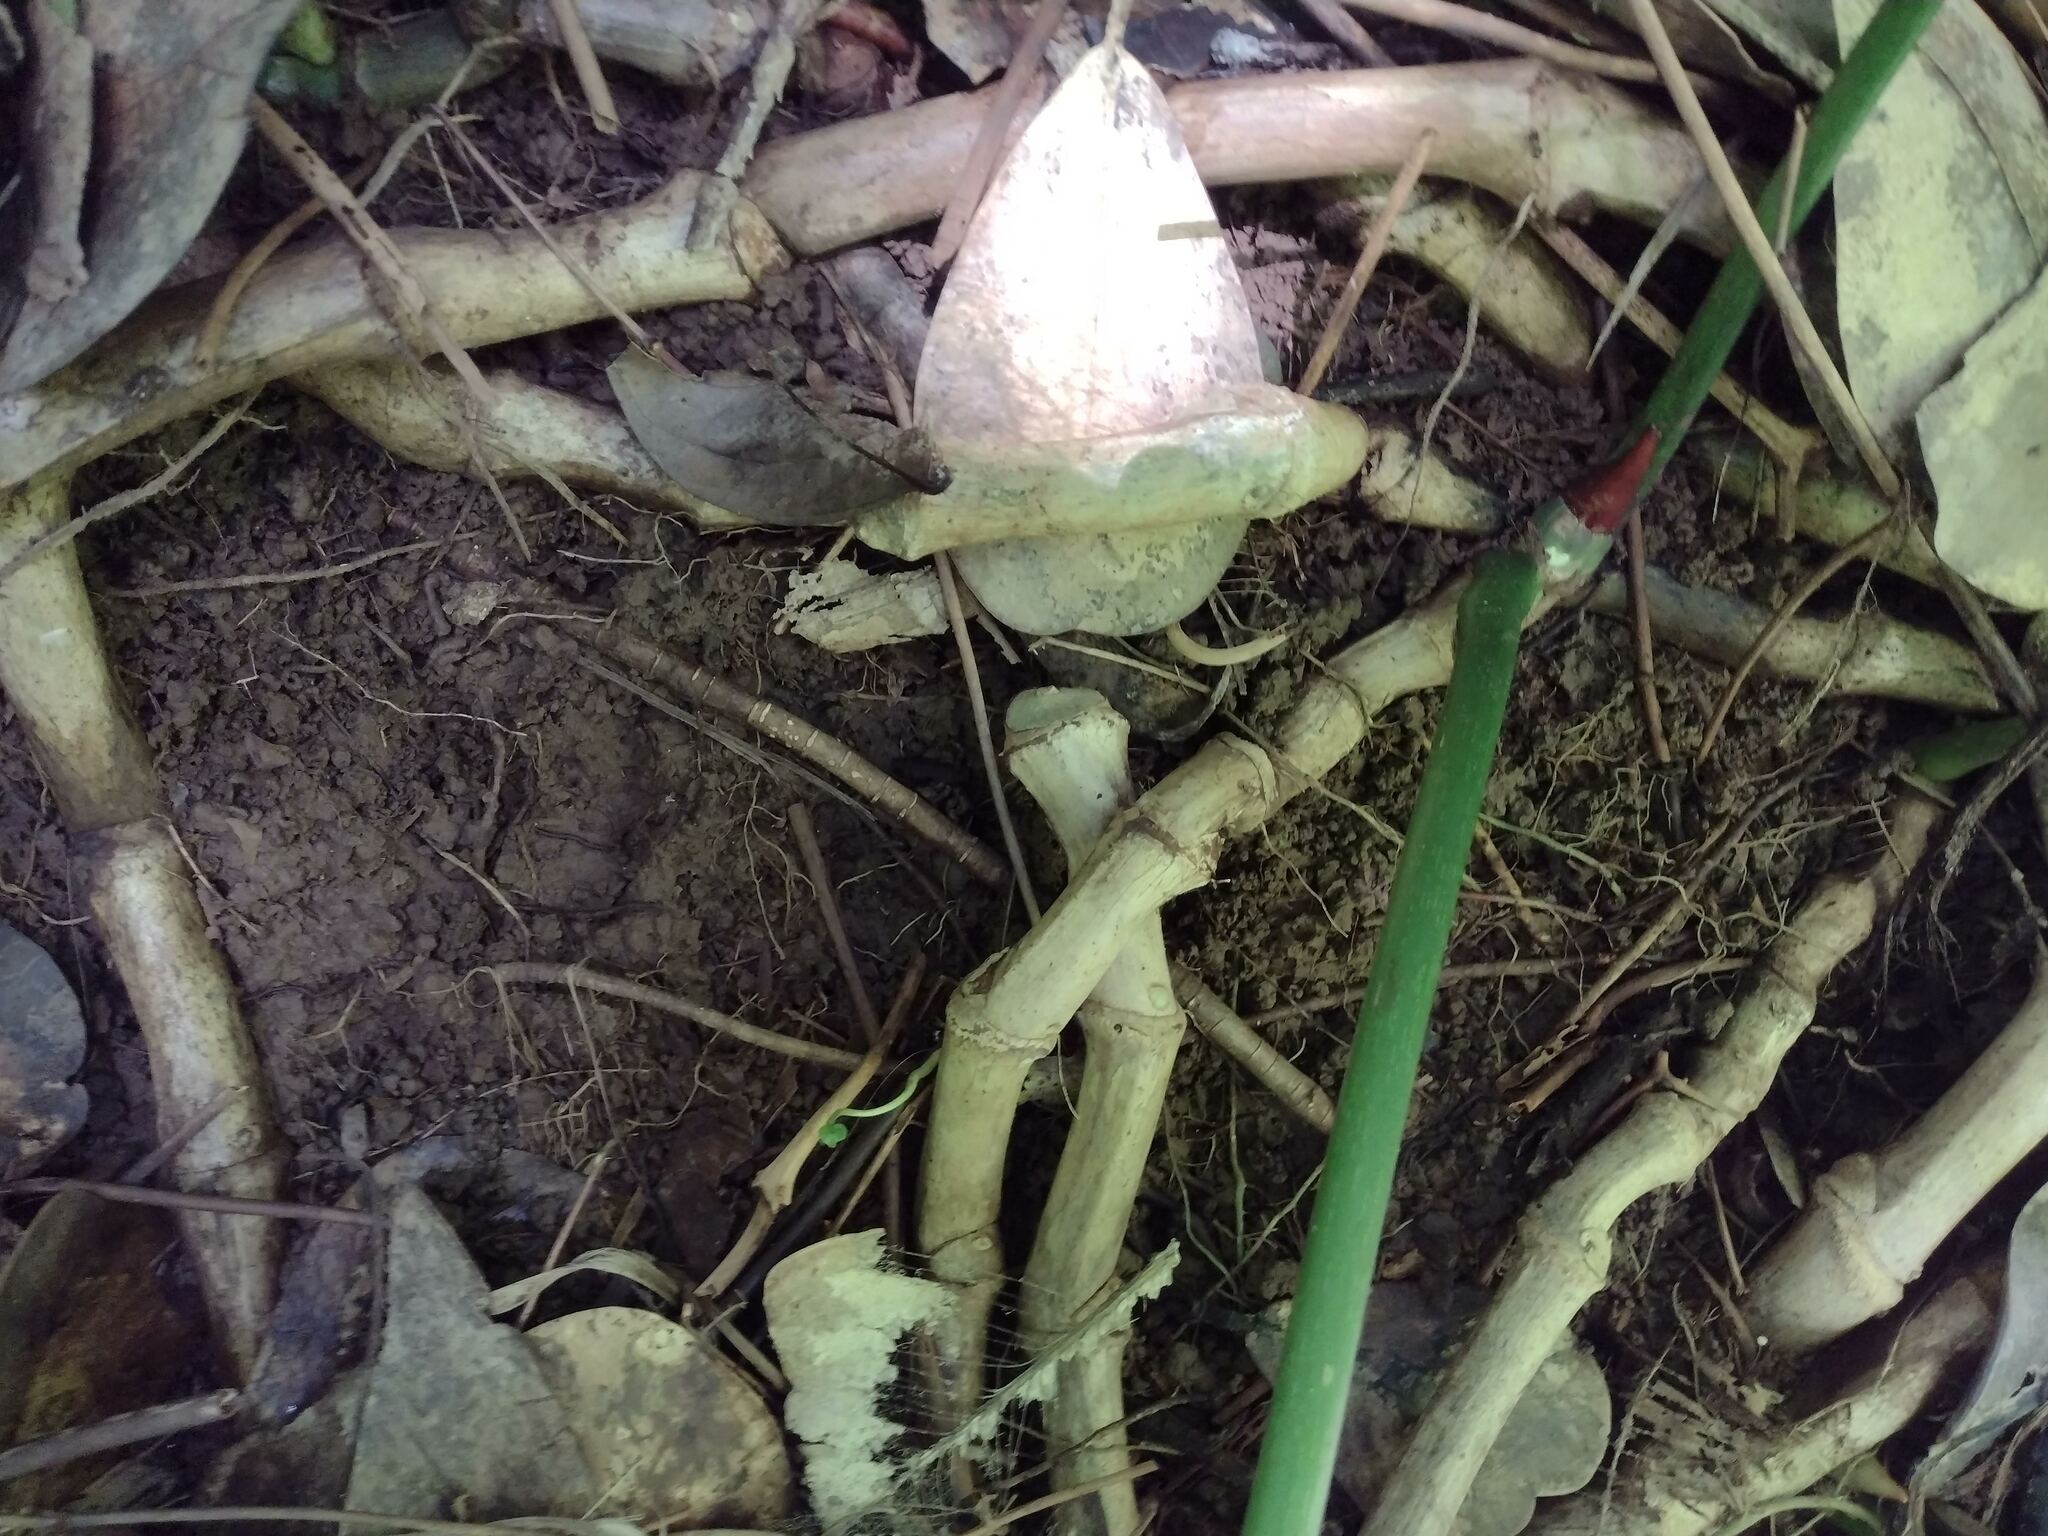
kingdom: Plantae
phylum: Tracheophyta
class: Liliopsida
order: Alismatales
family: Araceae
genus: Philodendron
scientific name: Philodendron gloriosum
